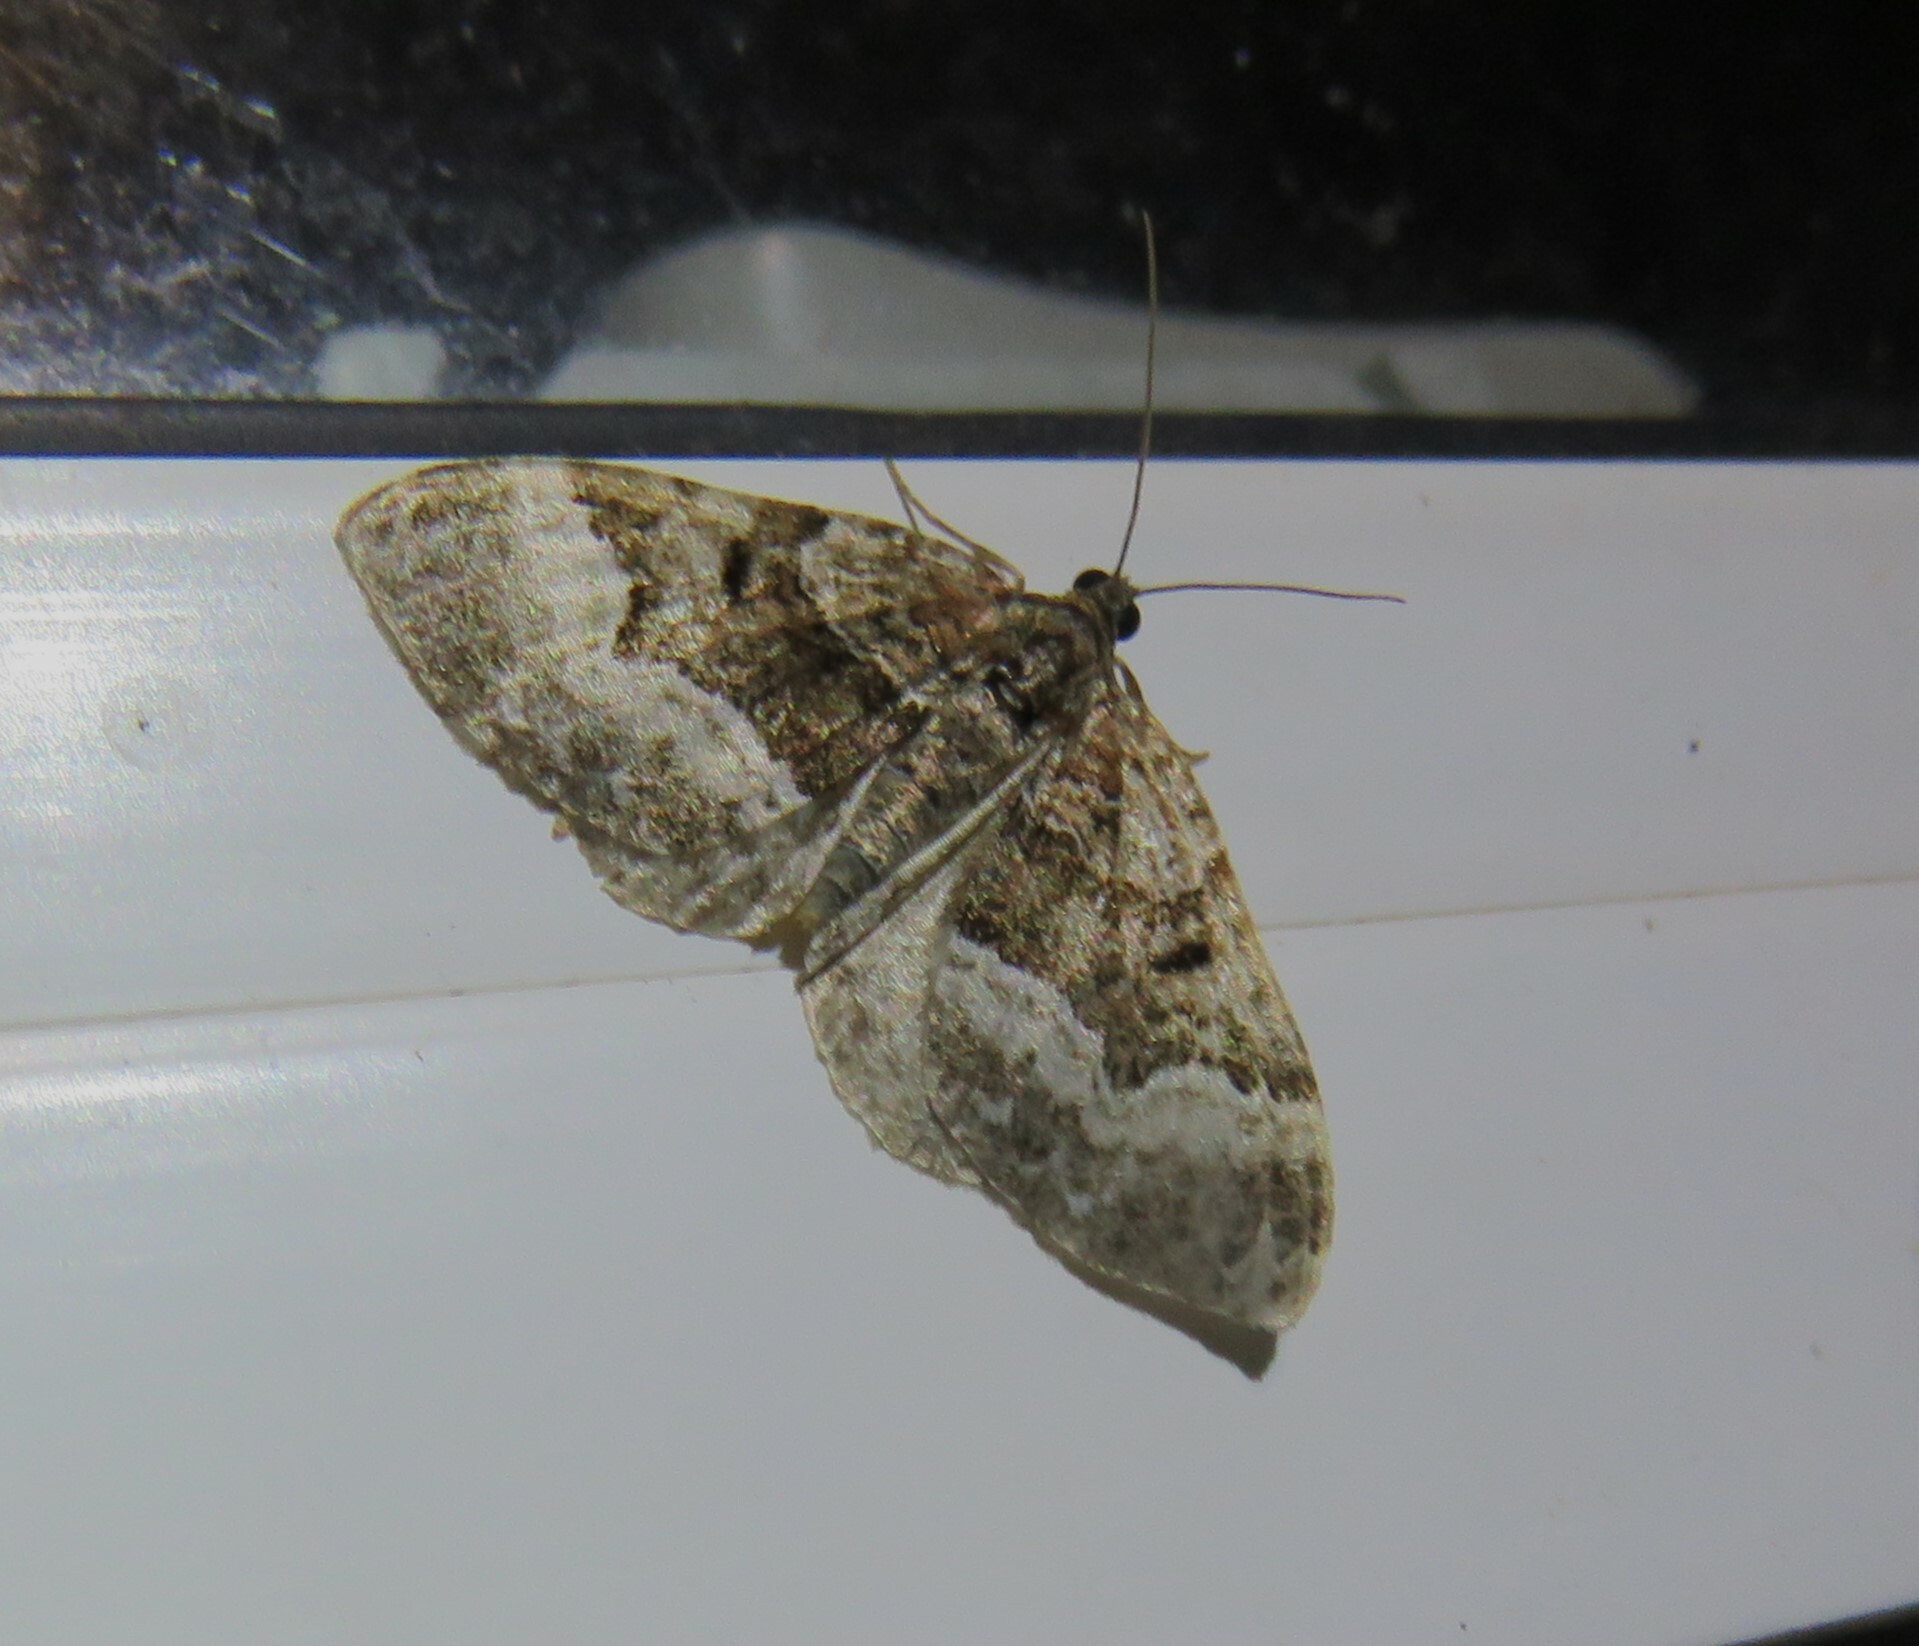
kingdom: Animalia
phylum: Arthropoda
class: Insecta
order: Lepidoptera
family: Geometridae
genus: Euphyia
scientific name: Euphyia intermediata
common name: Sharp-angled carpet
